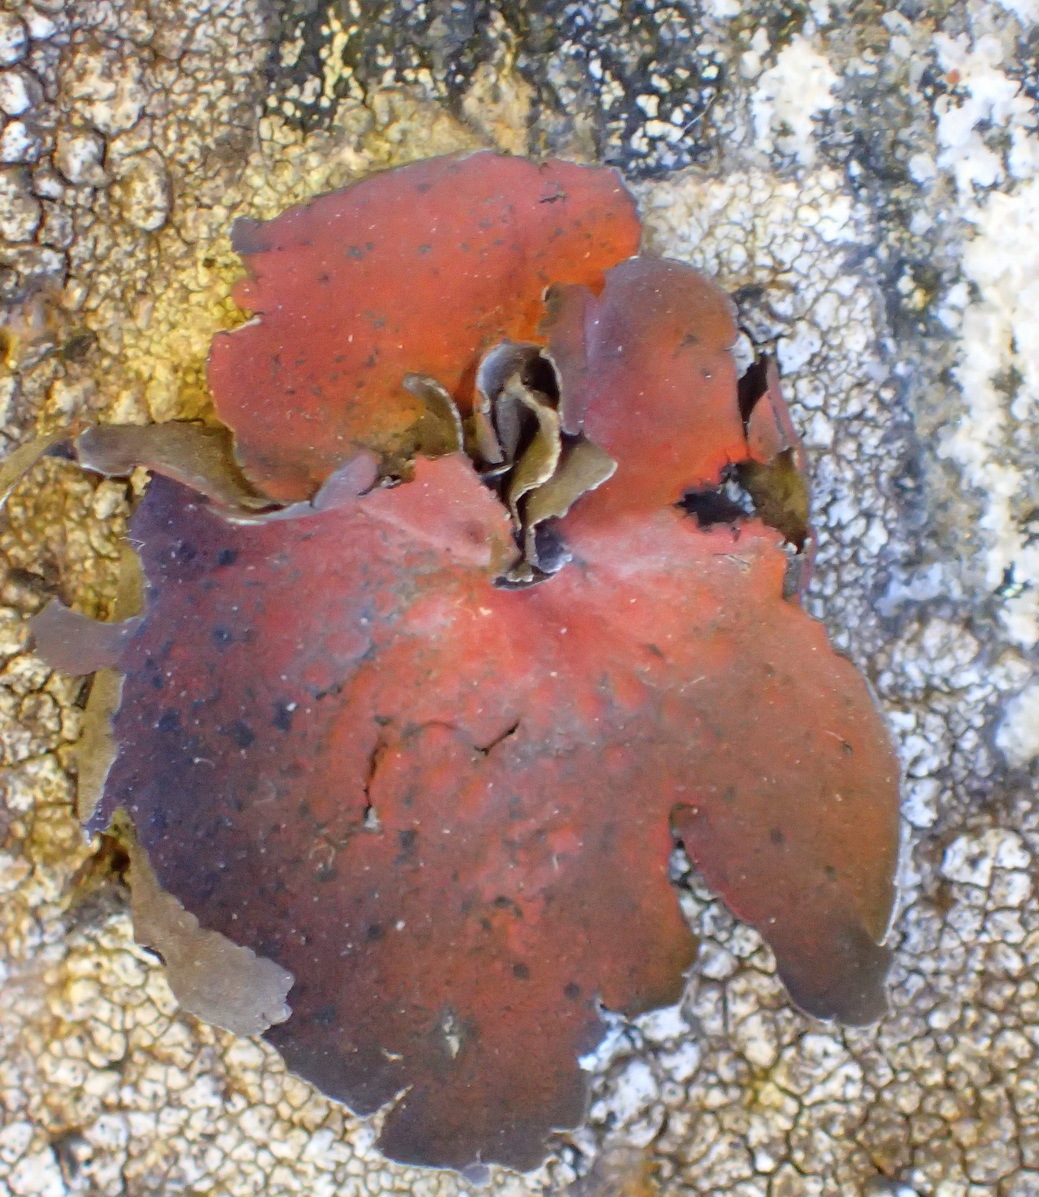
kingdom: Fungi
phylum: Ascomycota
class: Lecanoromycetes
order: Umbilicariales
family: Umbilicariaceae
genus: Lasallia
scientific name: Lasallia rubiginosa
